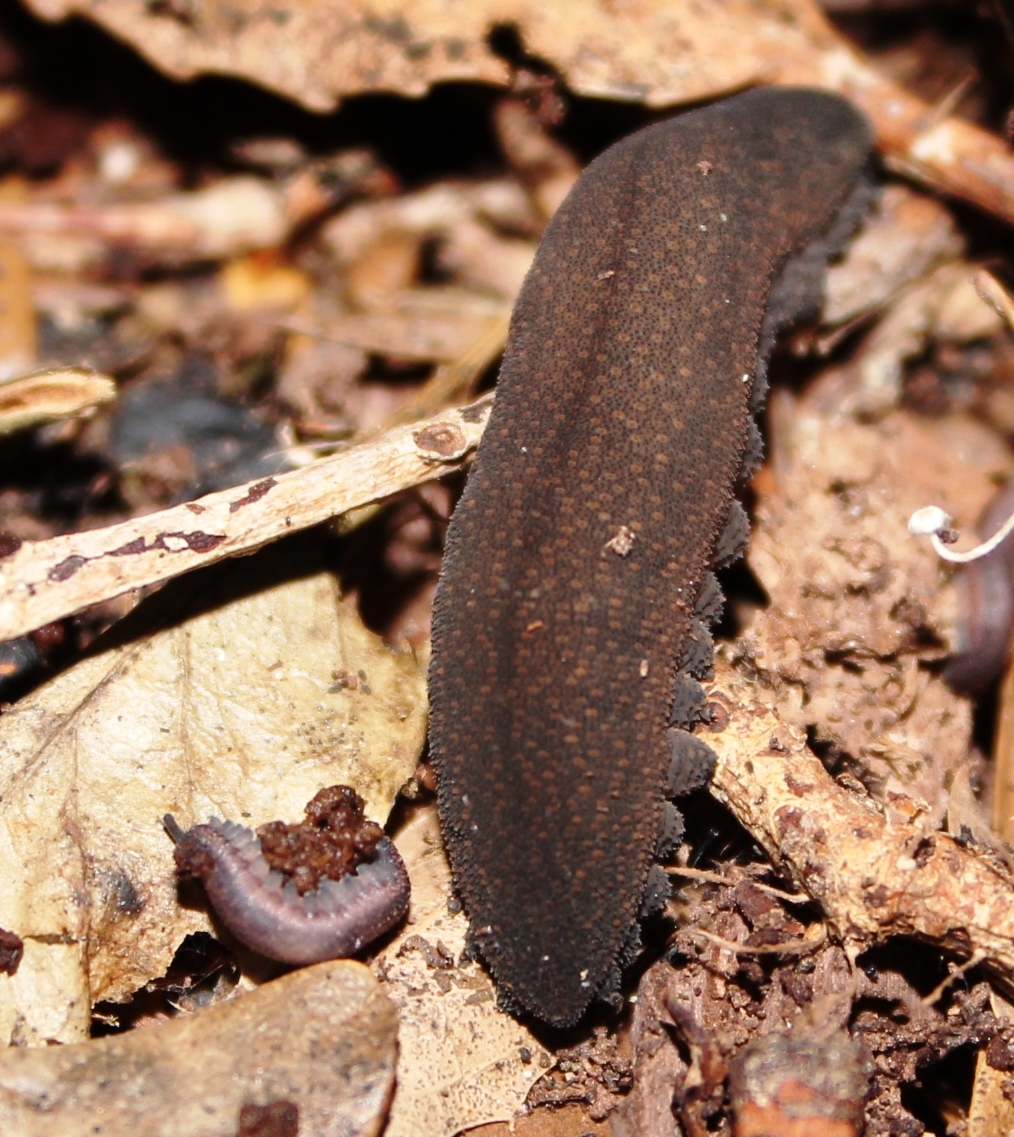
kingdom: Animalia
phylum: Onychophora
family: Peripatopsidae
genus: Peripatopsis
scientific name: Peripatopsis overbergiensis
